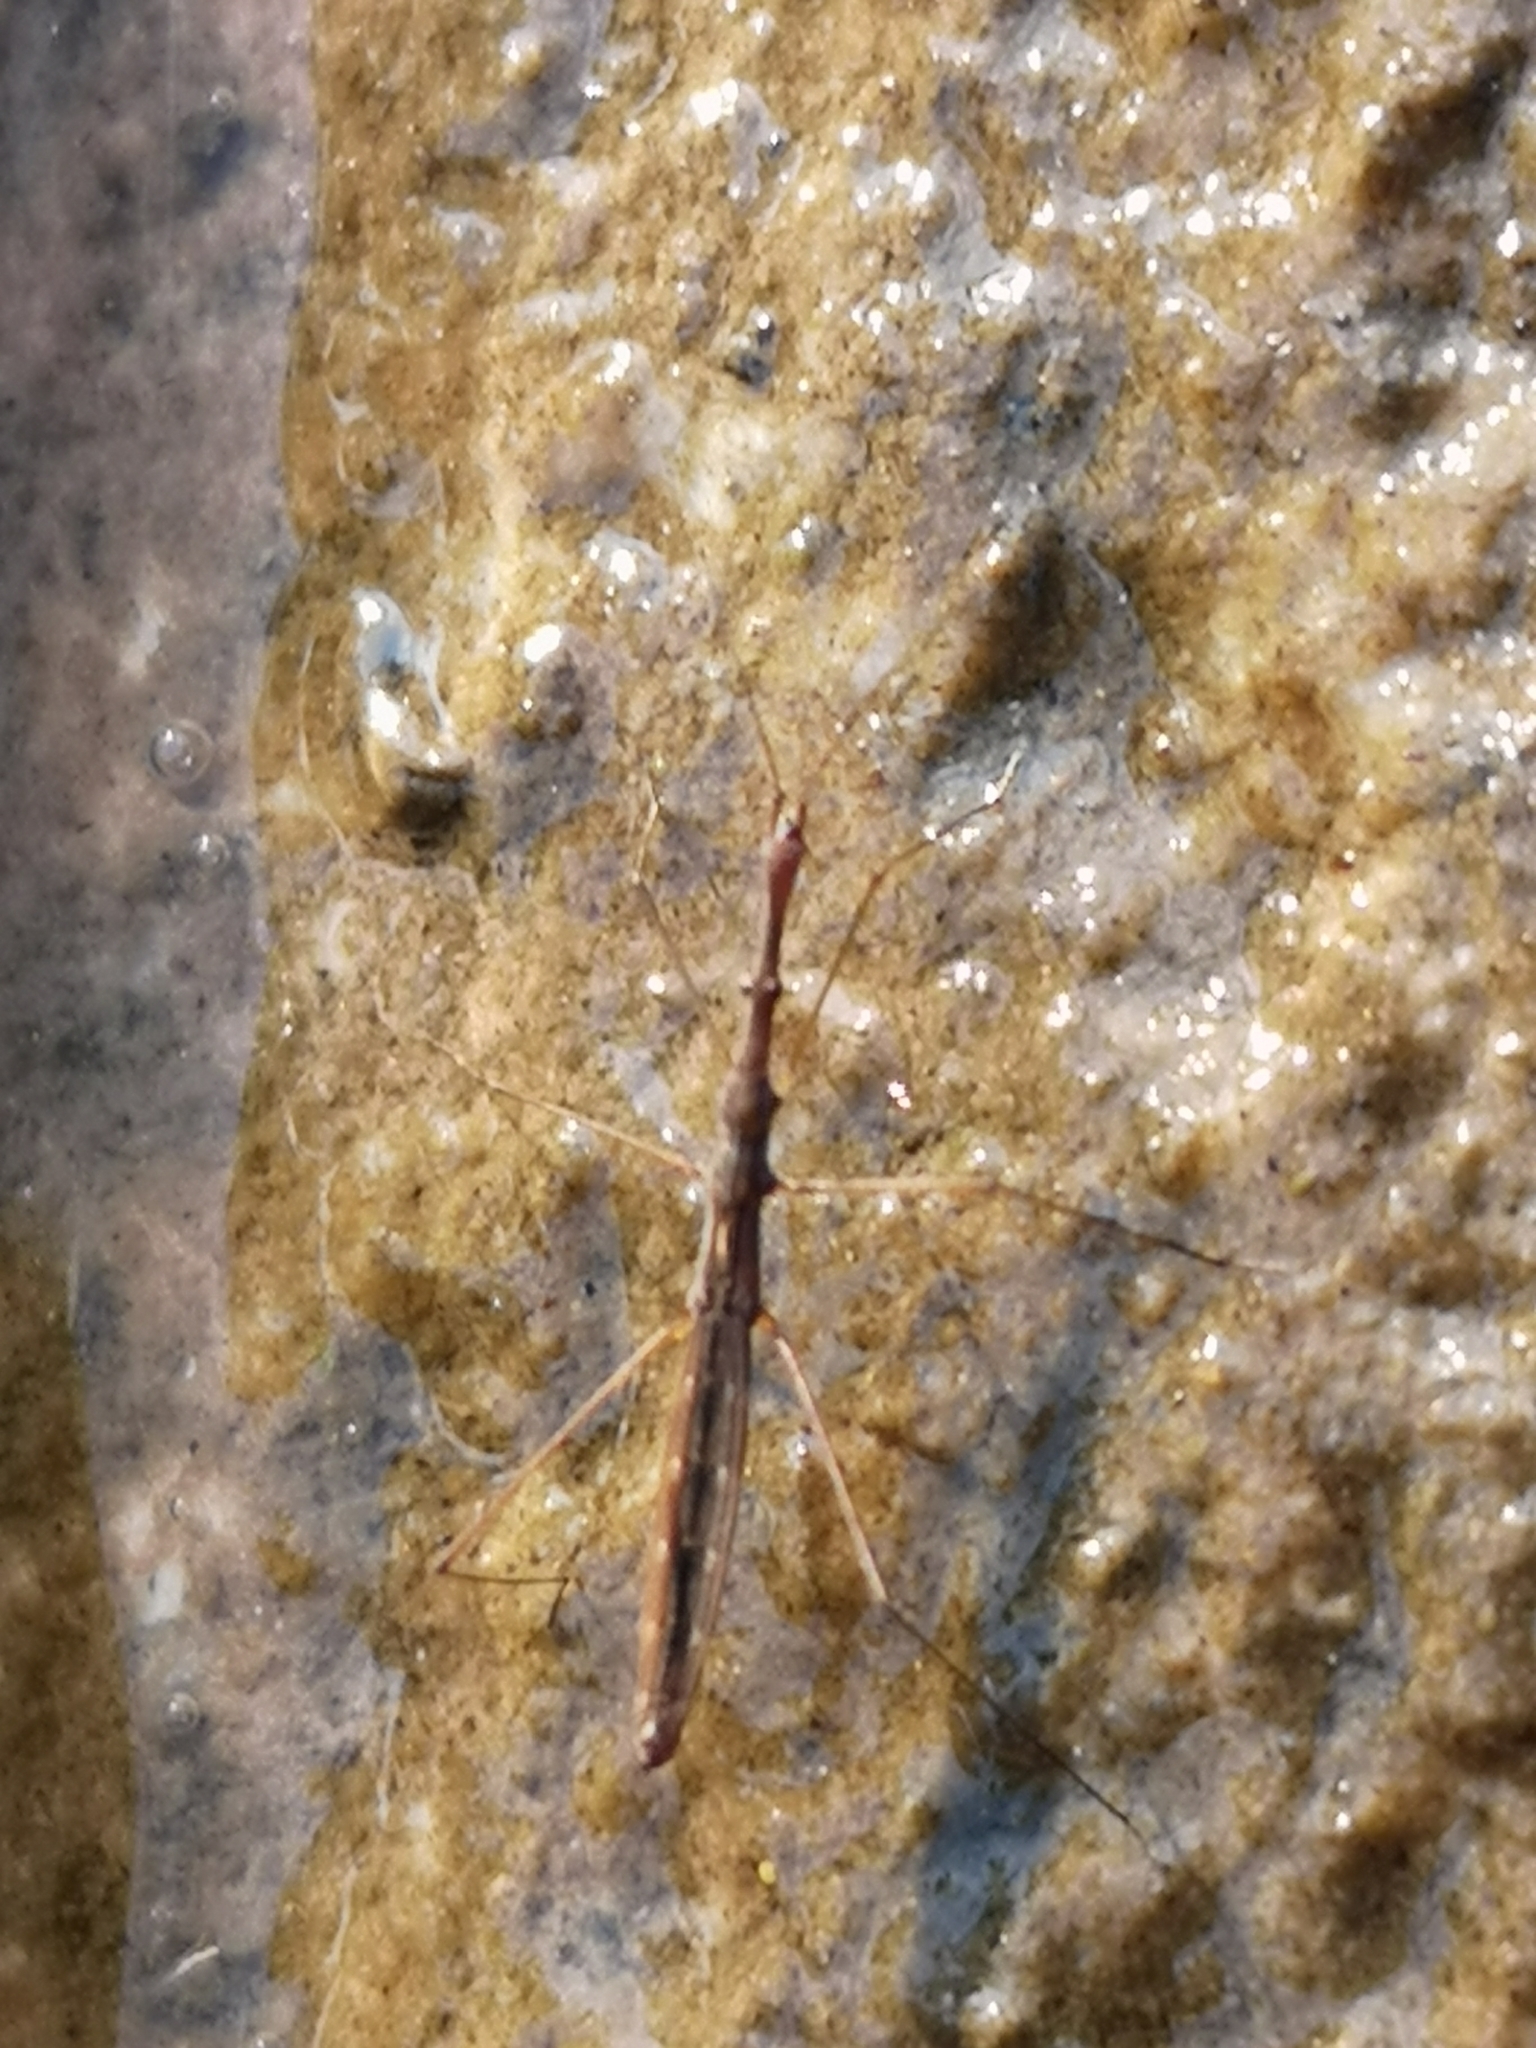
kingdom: Animalia
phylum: Arthropoda
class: Insecta
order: Hemiptera
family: Hydrometridae
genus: Hydrometra
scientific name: Hydrometra stagnorum
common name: Water measurer
